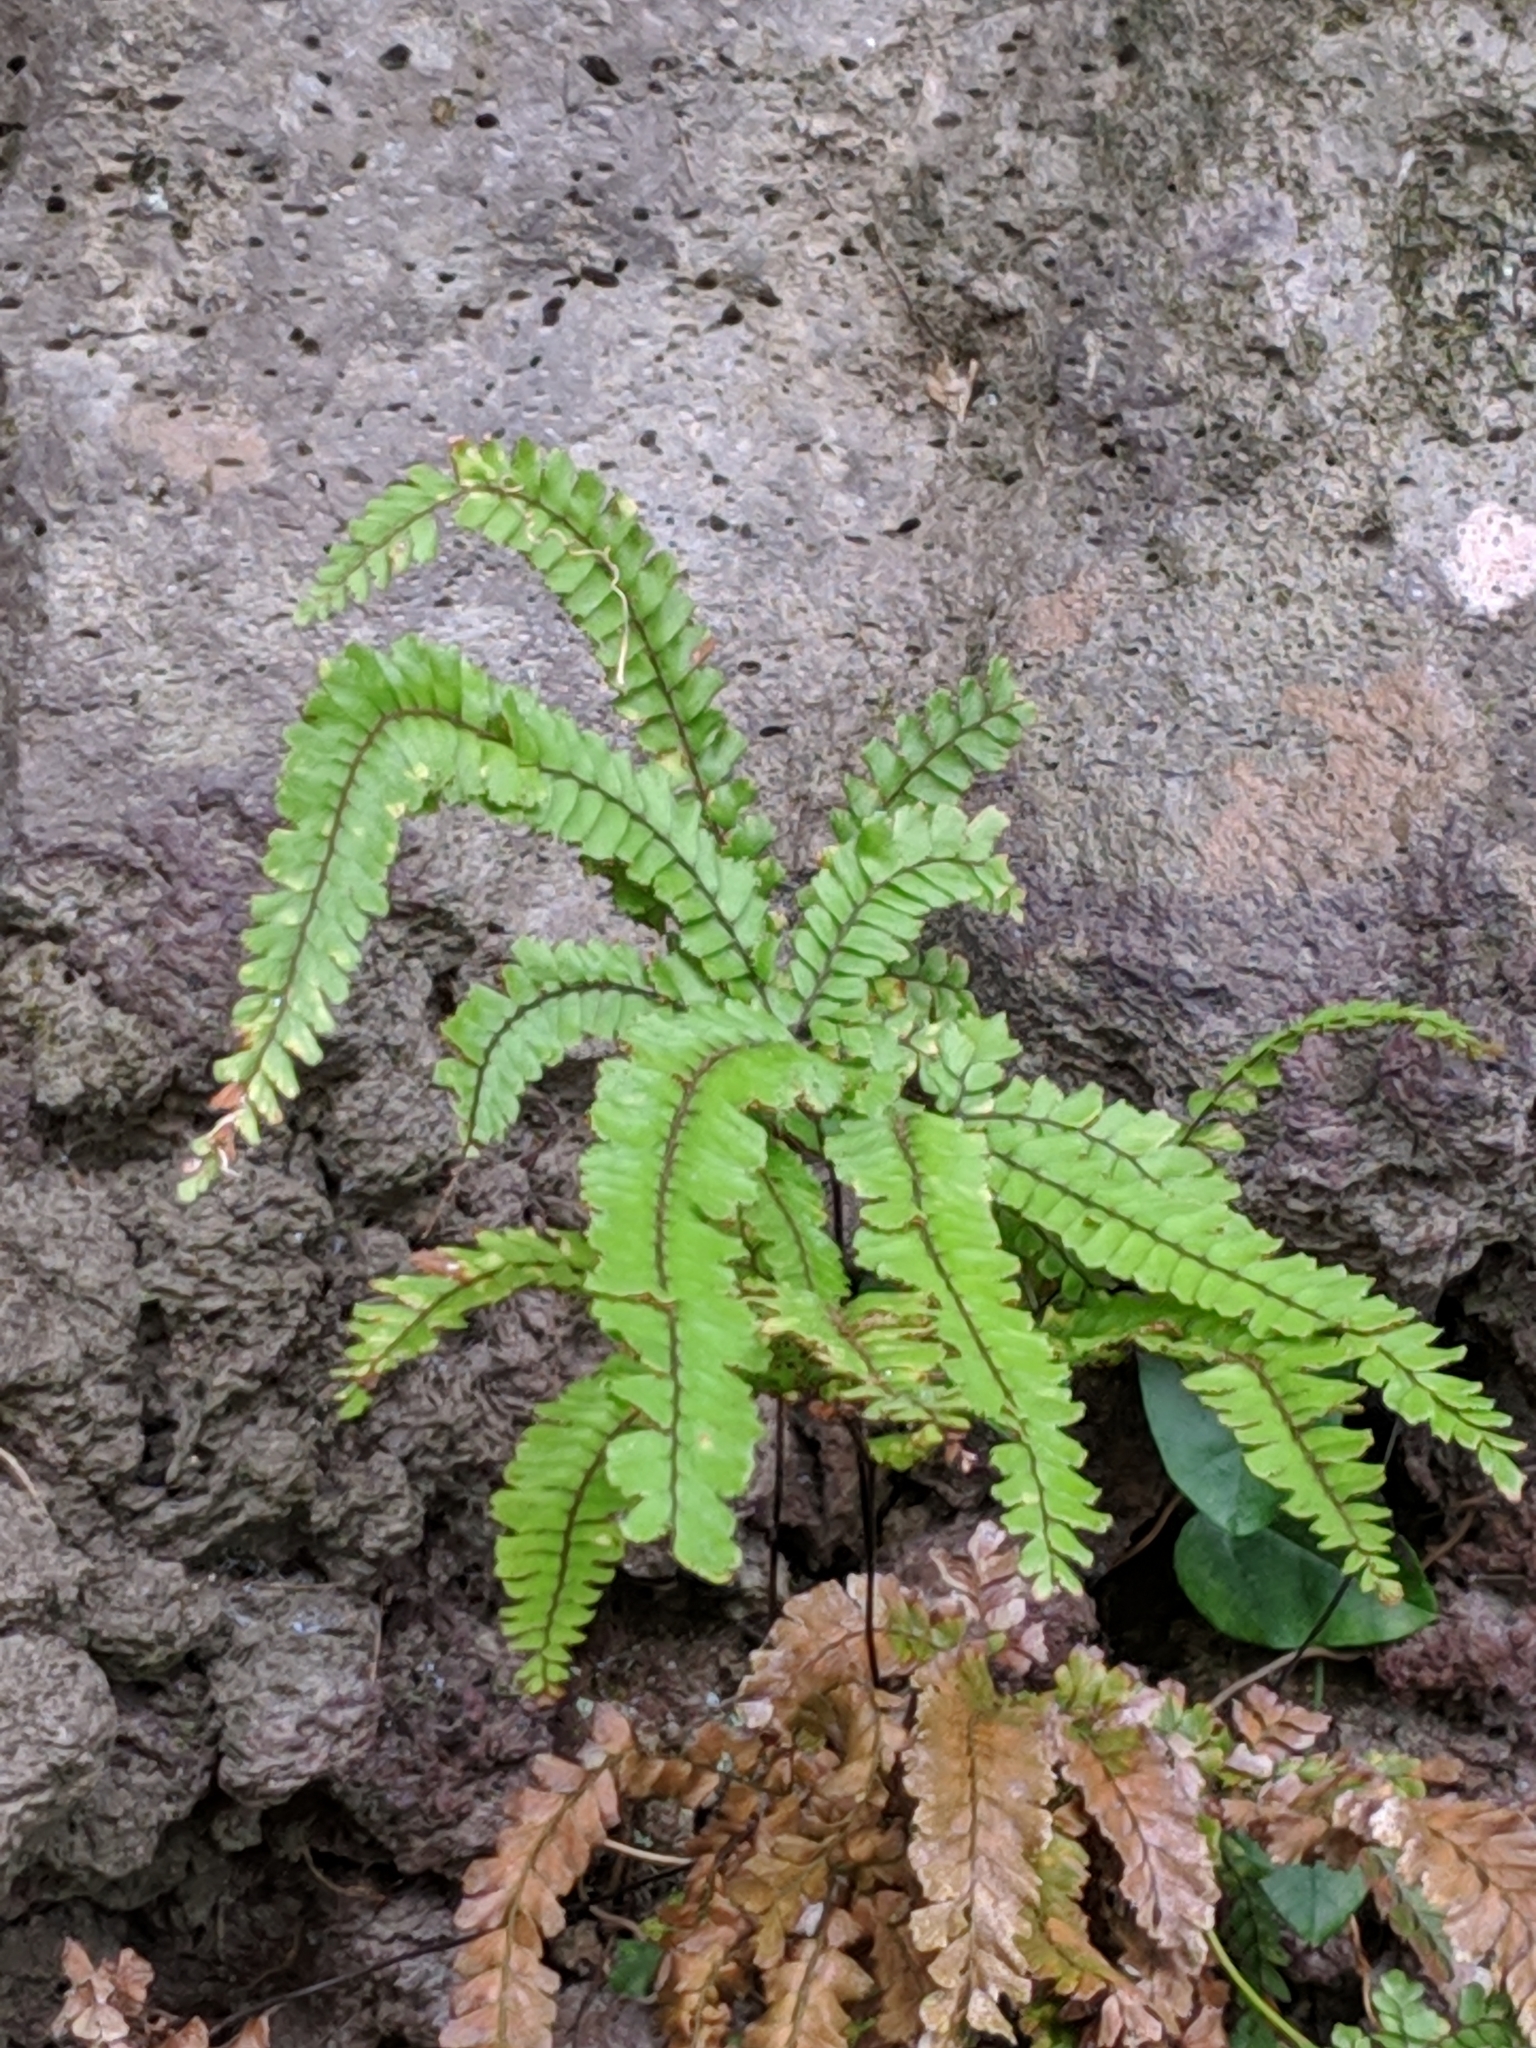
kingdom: Plantae
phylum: Tracheophyta
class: Polypodiopsida
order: Polypodiales
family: Pteridaceae
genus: Adiantum
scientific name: Adiantum hispidulum
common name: Rough maidenhair
